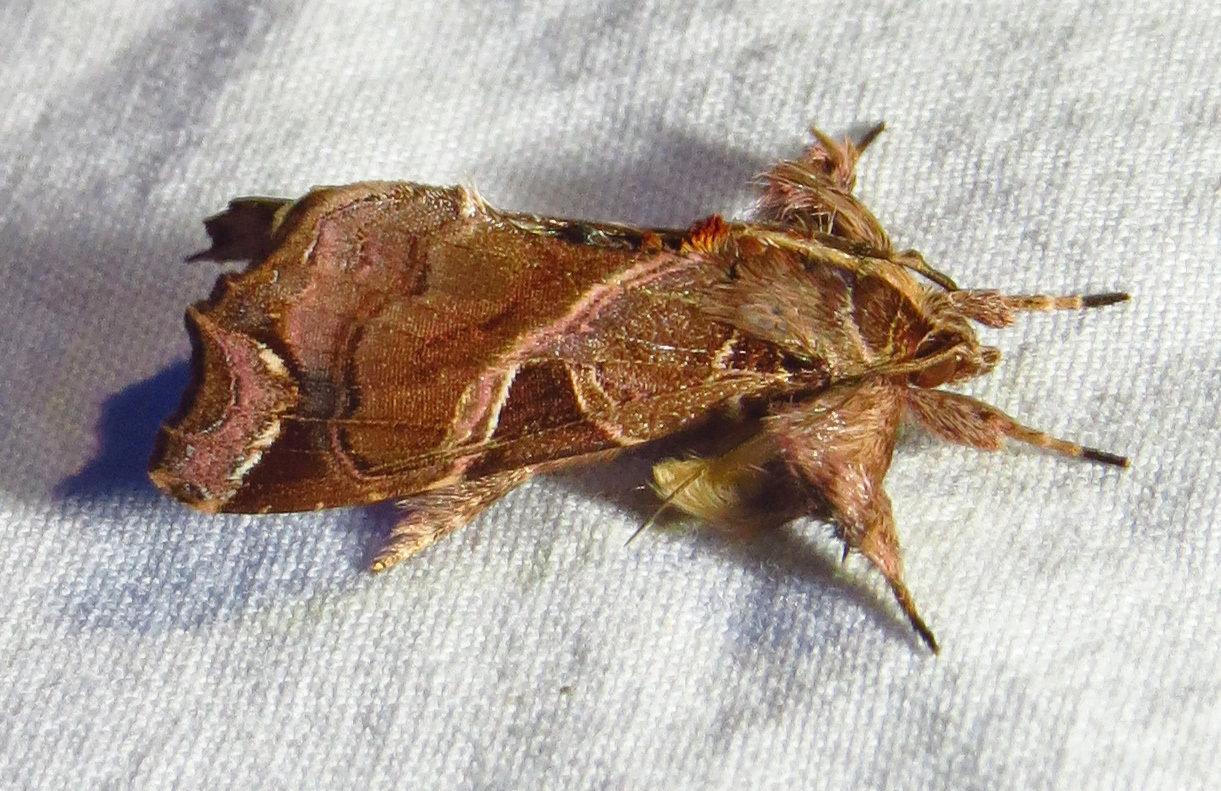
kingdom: Animalia
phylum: Arthropoda
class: Insecta
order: Lepidoptera
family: Noctuidae
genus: Callopistria
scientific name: Callopistria floridensis
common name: Florida fern moth
